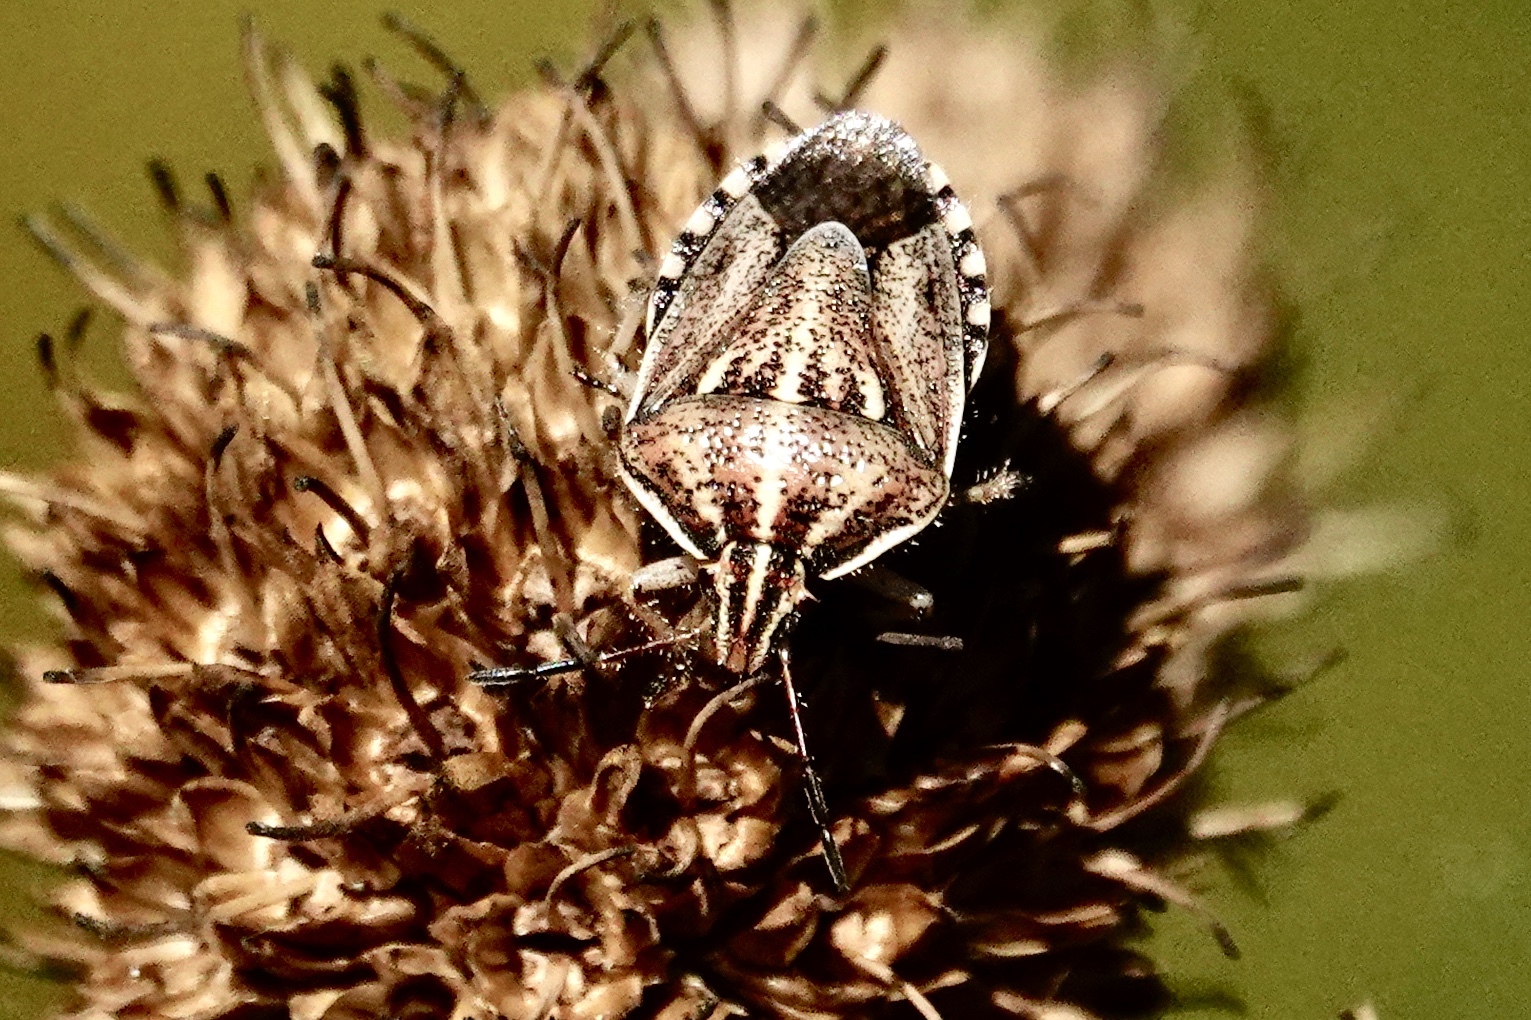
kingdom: Animalia
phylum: Arthropoda
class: Insecta
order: Hemiptera
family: Pentatomidae
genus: Trichopepla
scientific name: Trichopepla semivittata
